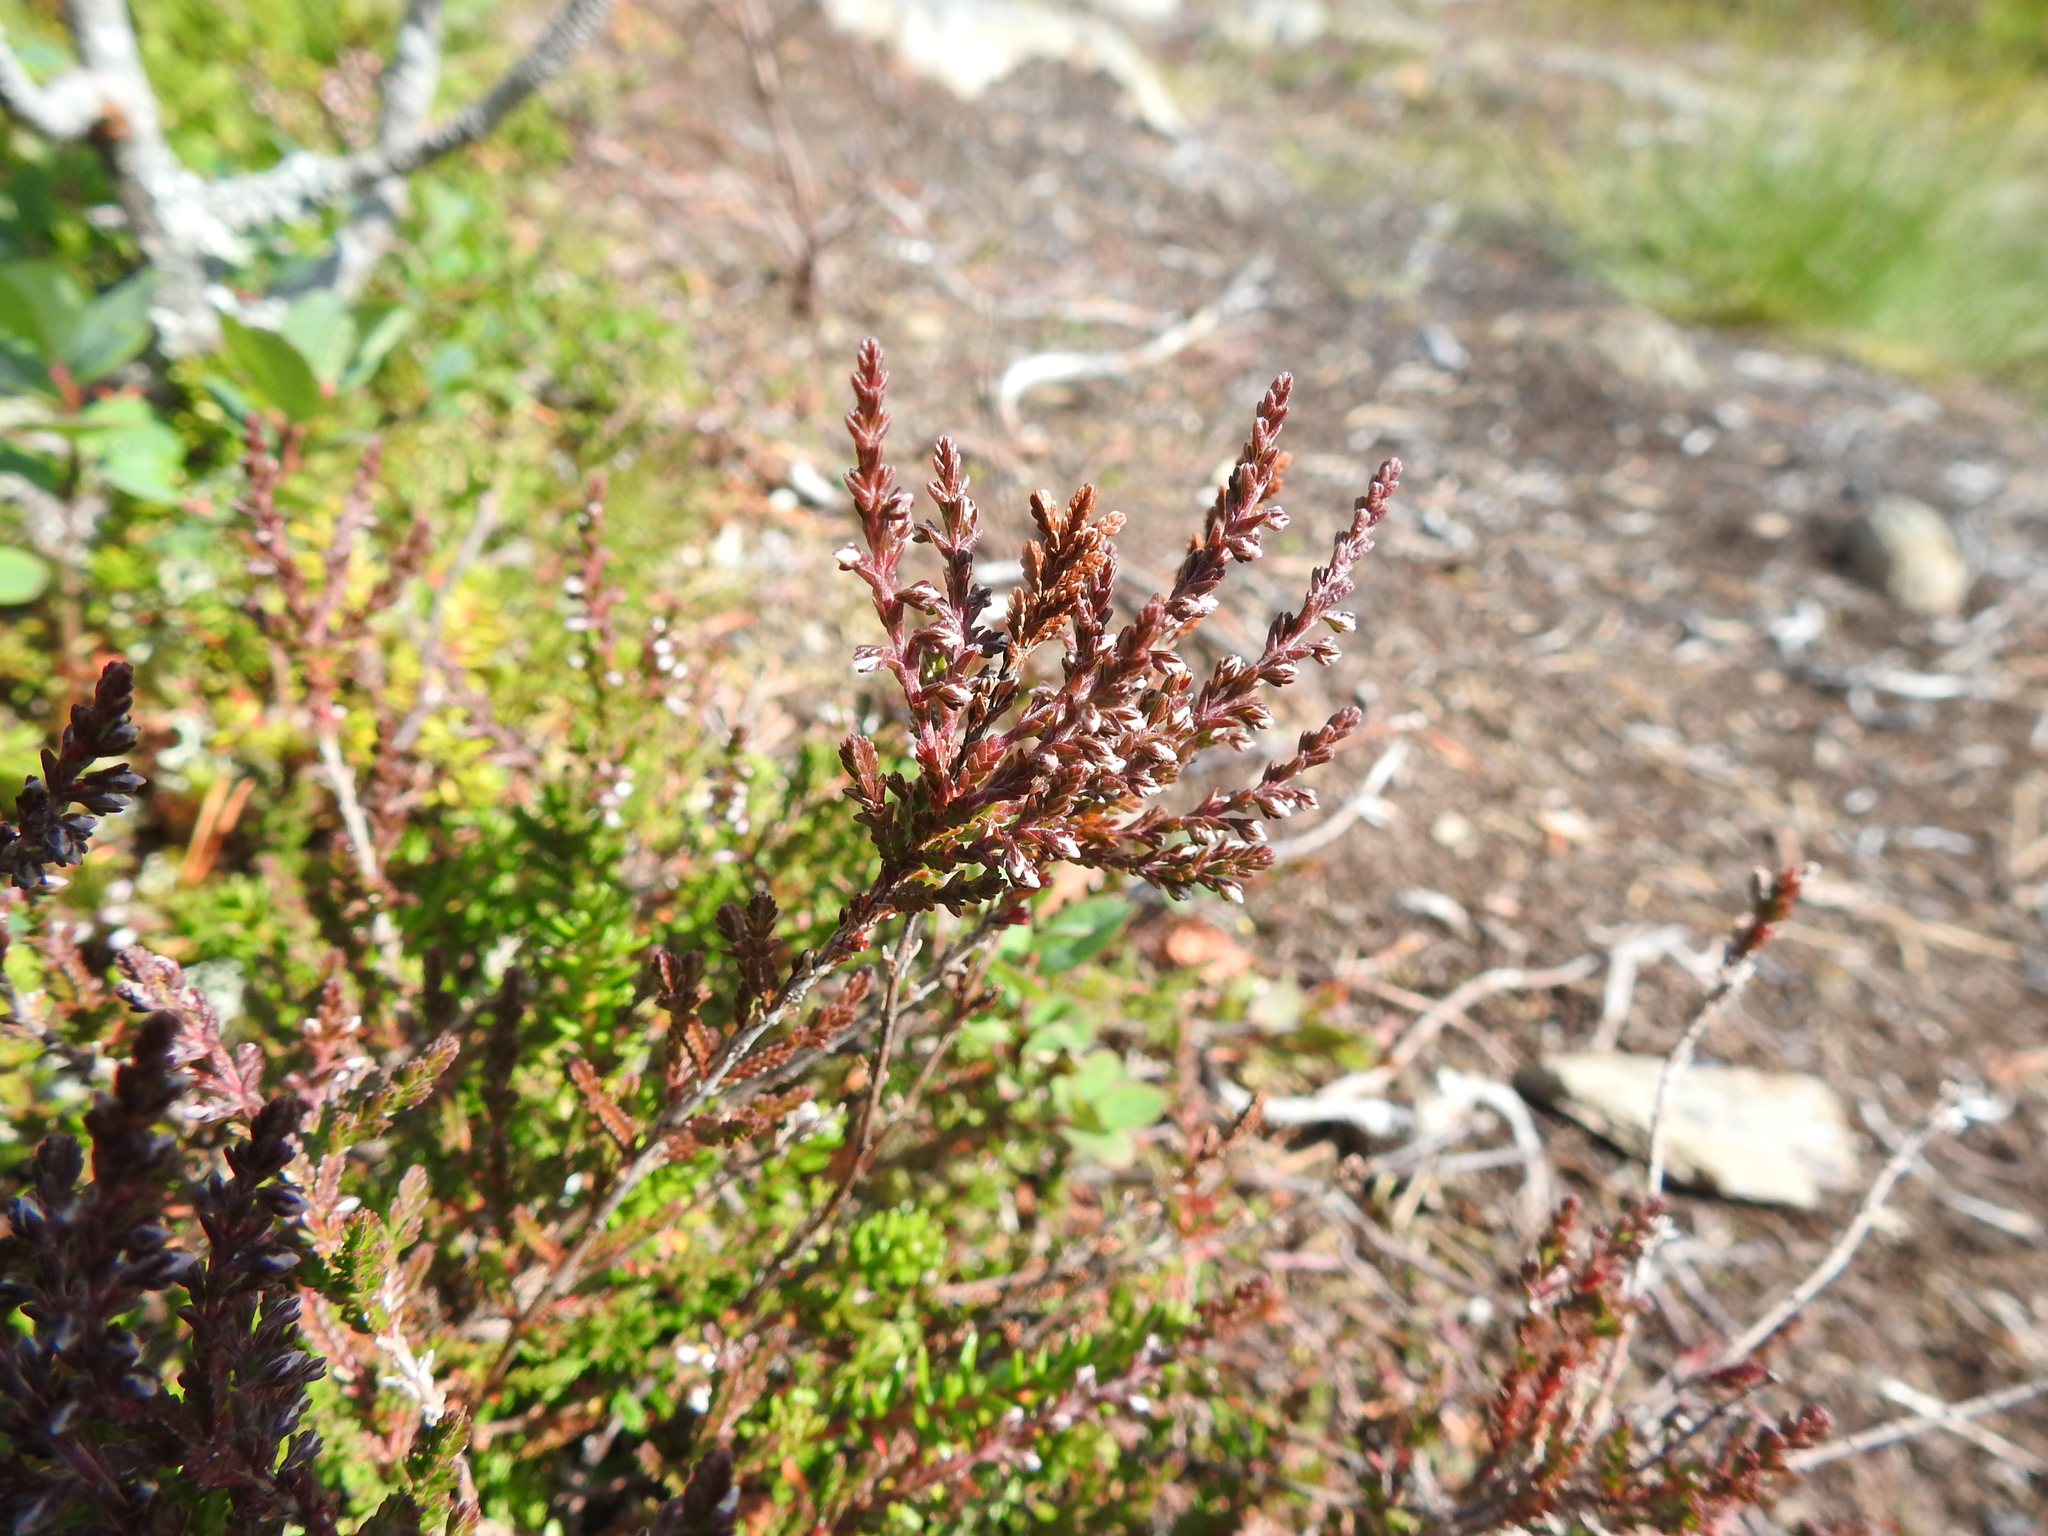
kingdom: Plantae
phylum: Tracheophyta
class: Magnoliopsida
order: Ericales
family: Ericaceae
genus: Calluna
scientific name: Calluna vulgaris
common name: Heather
